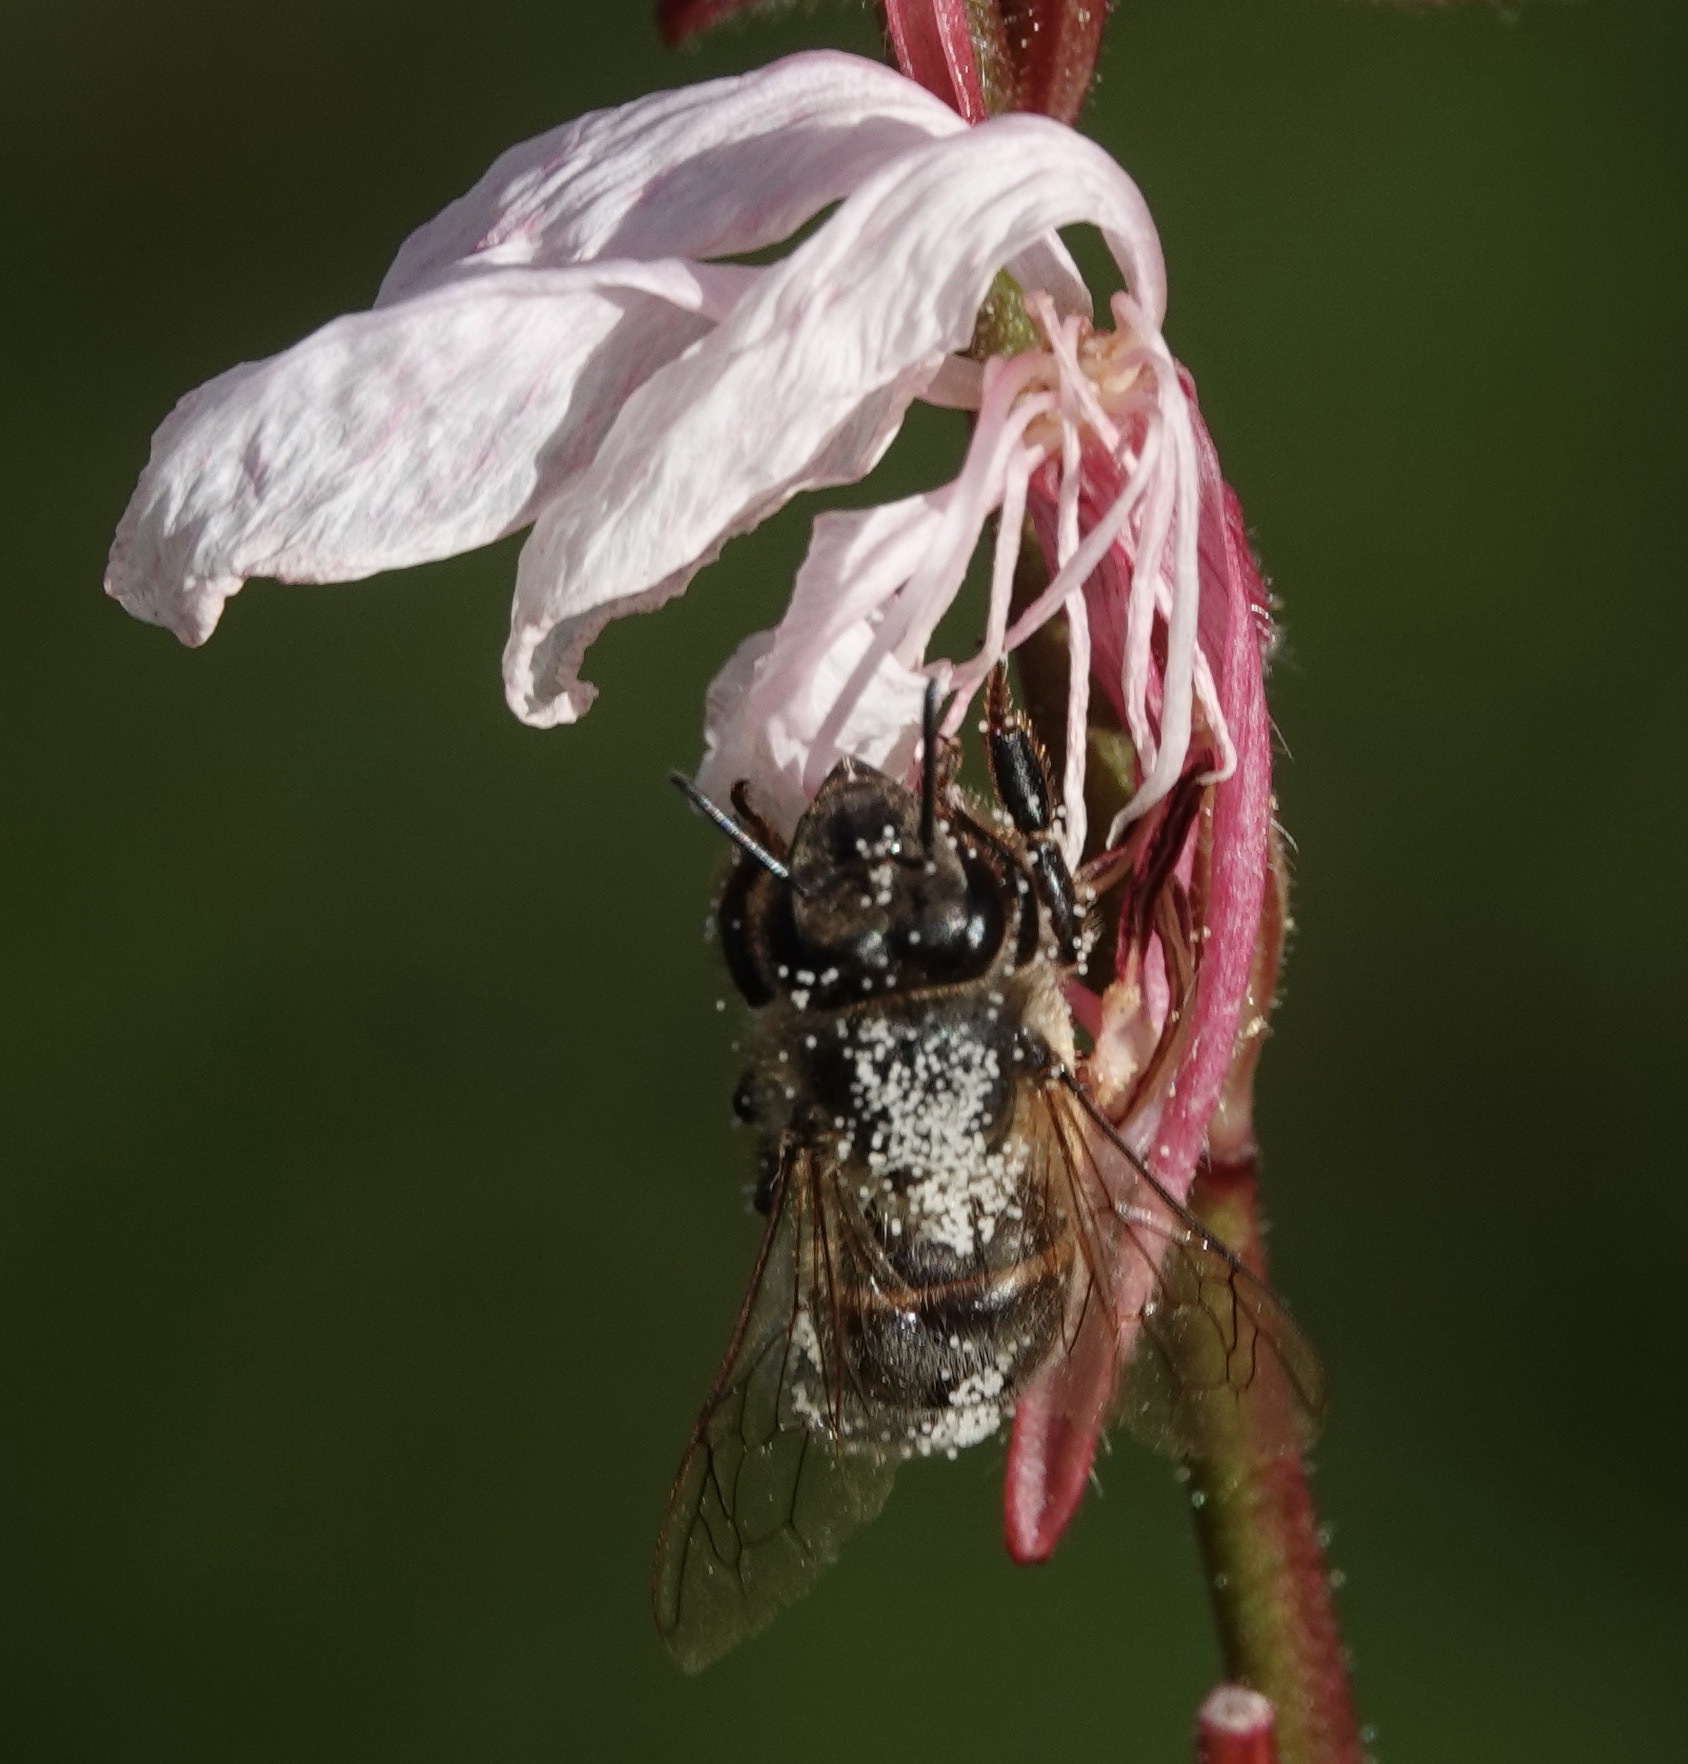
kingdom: Animalia
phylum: Arthropoda
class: Insecta
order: Hymenoptera
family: Apidae
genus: Apis
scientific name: Apis mellifera
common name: Honey bee
